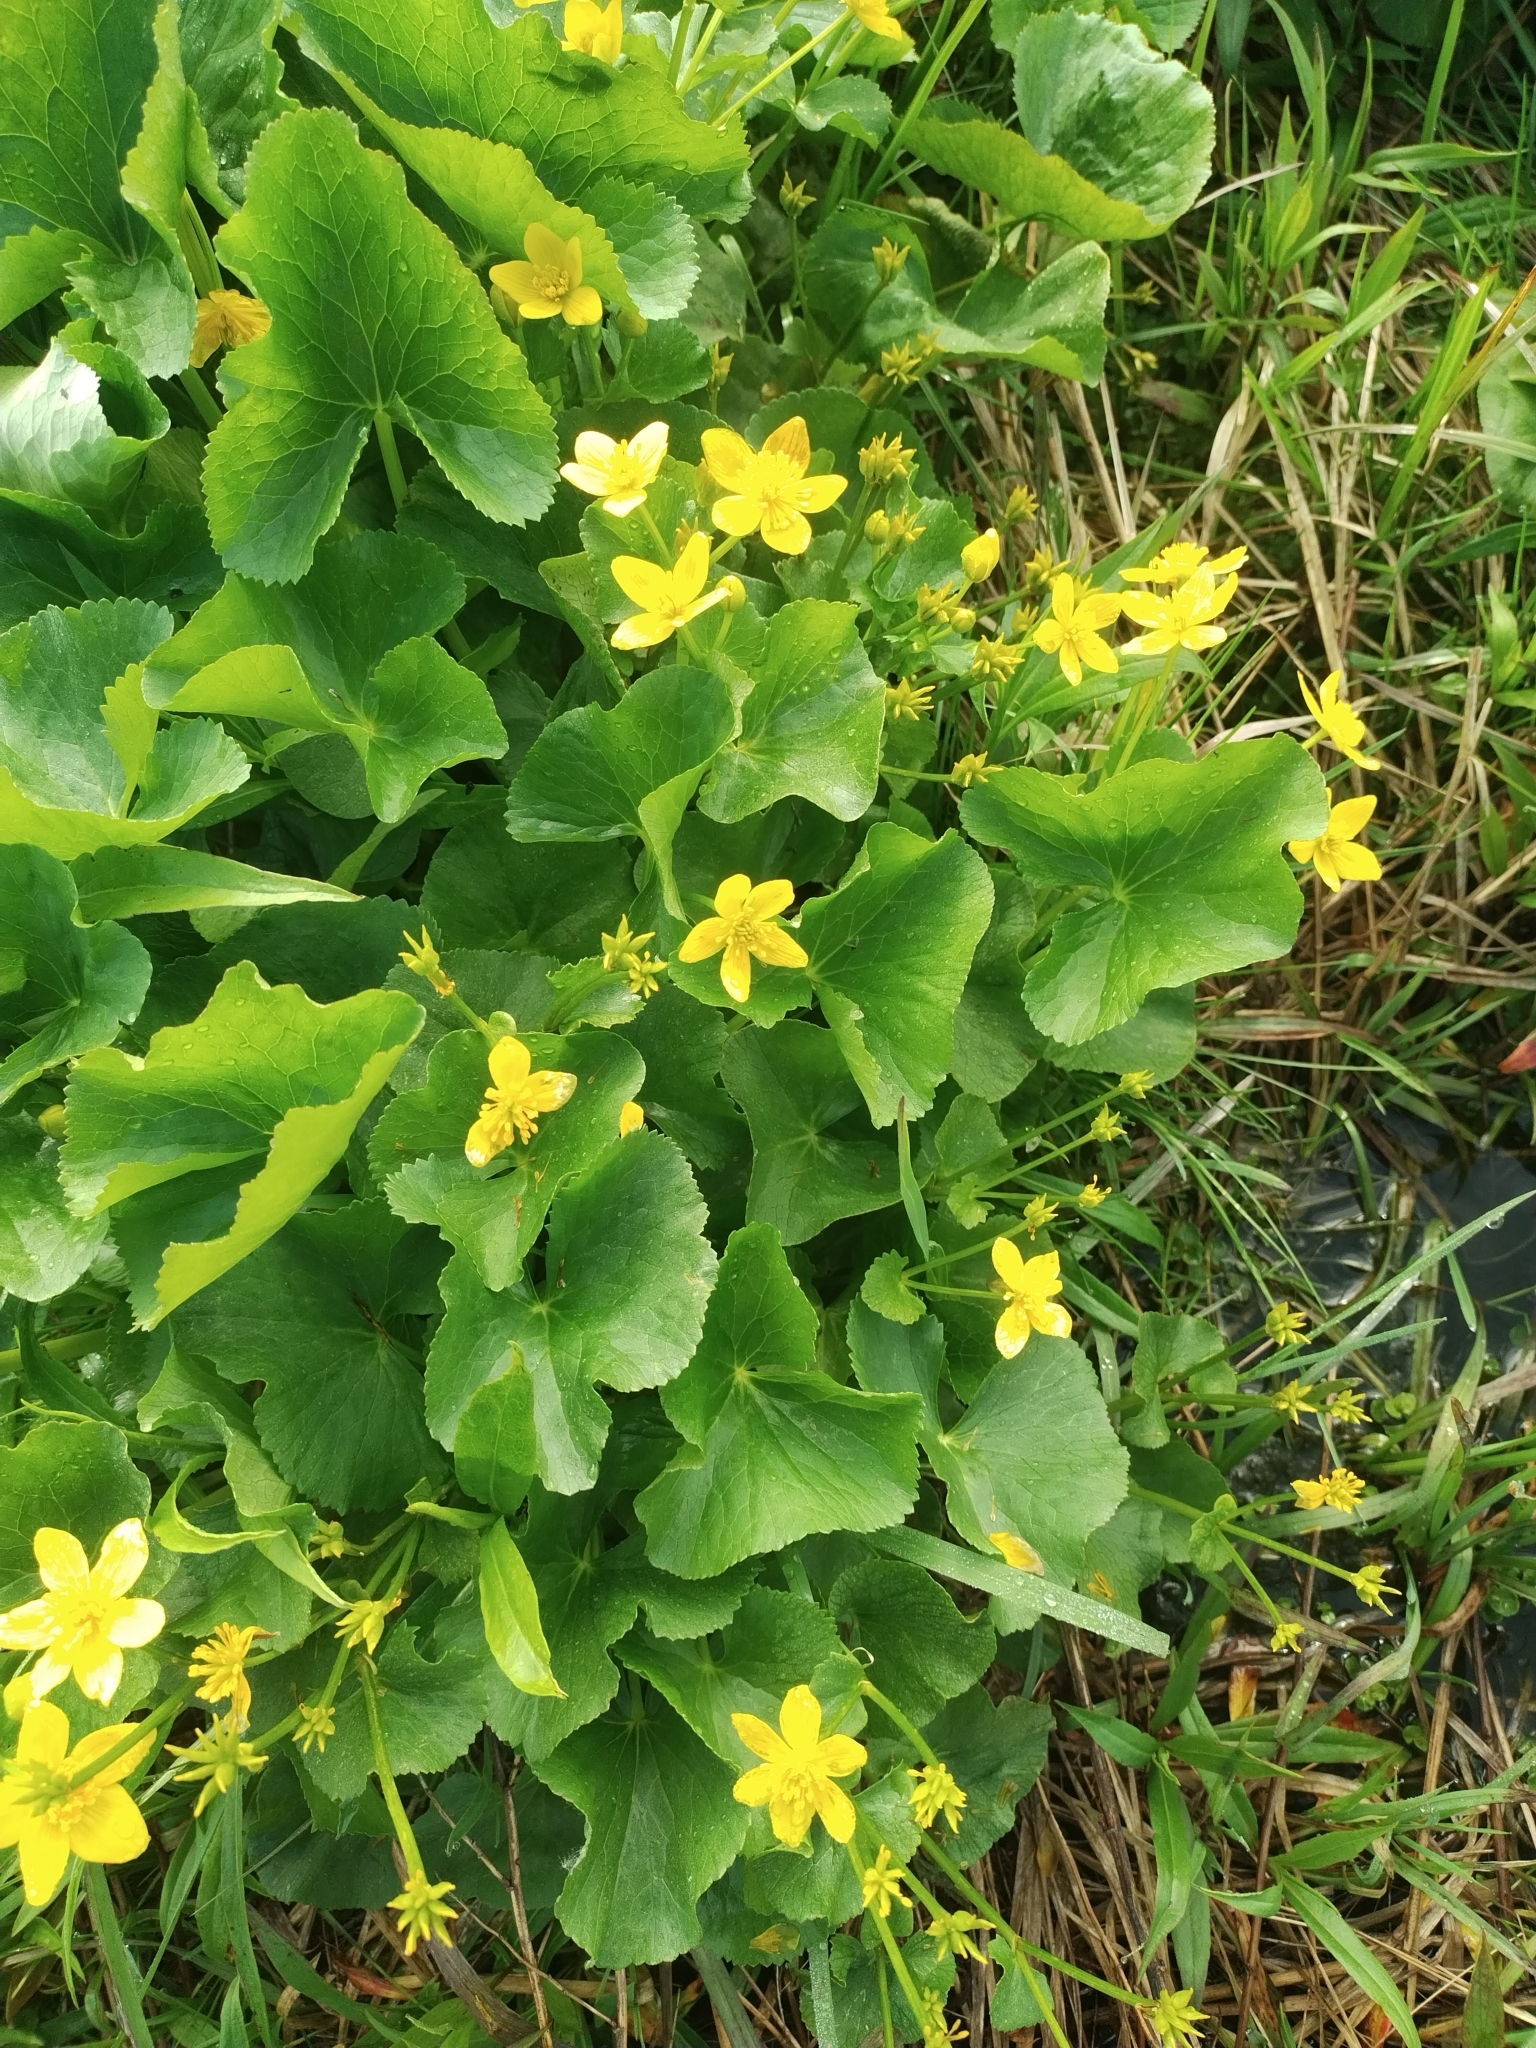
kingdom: Plantae
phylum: Tracheophyta
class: Magnoliopsida
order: Ranunculales
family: Ranunculaceae
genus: Caltha
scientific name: Caltha palustris
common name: Marsh marigold
